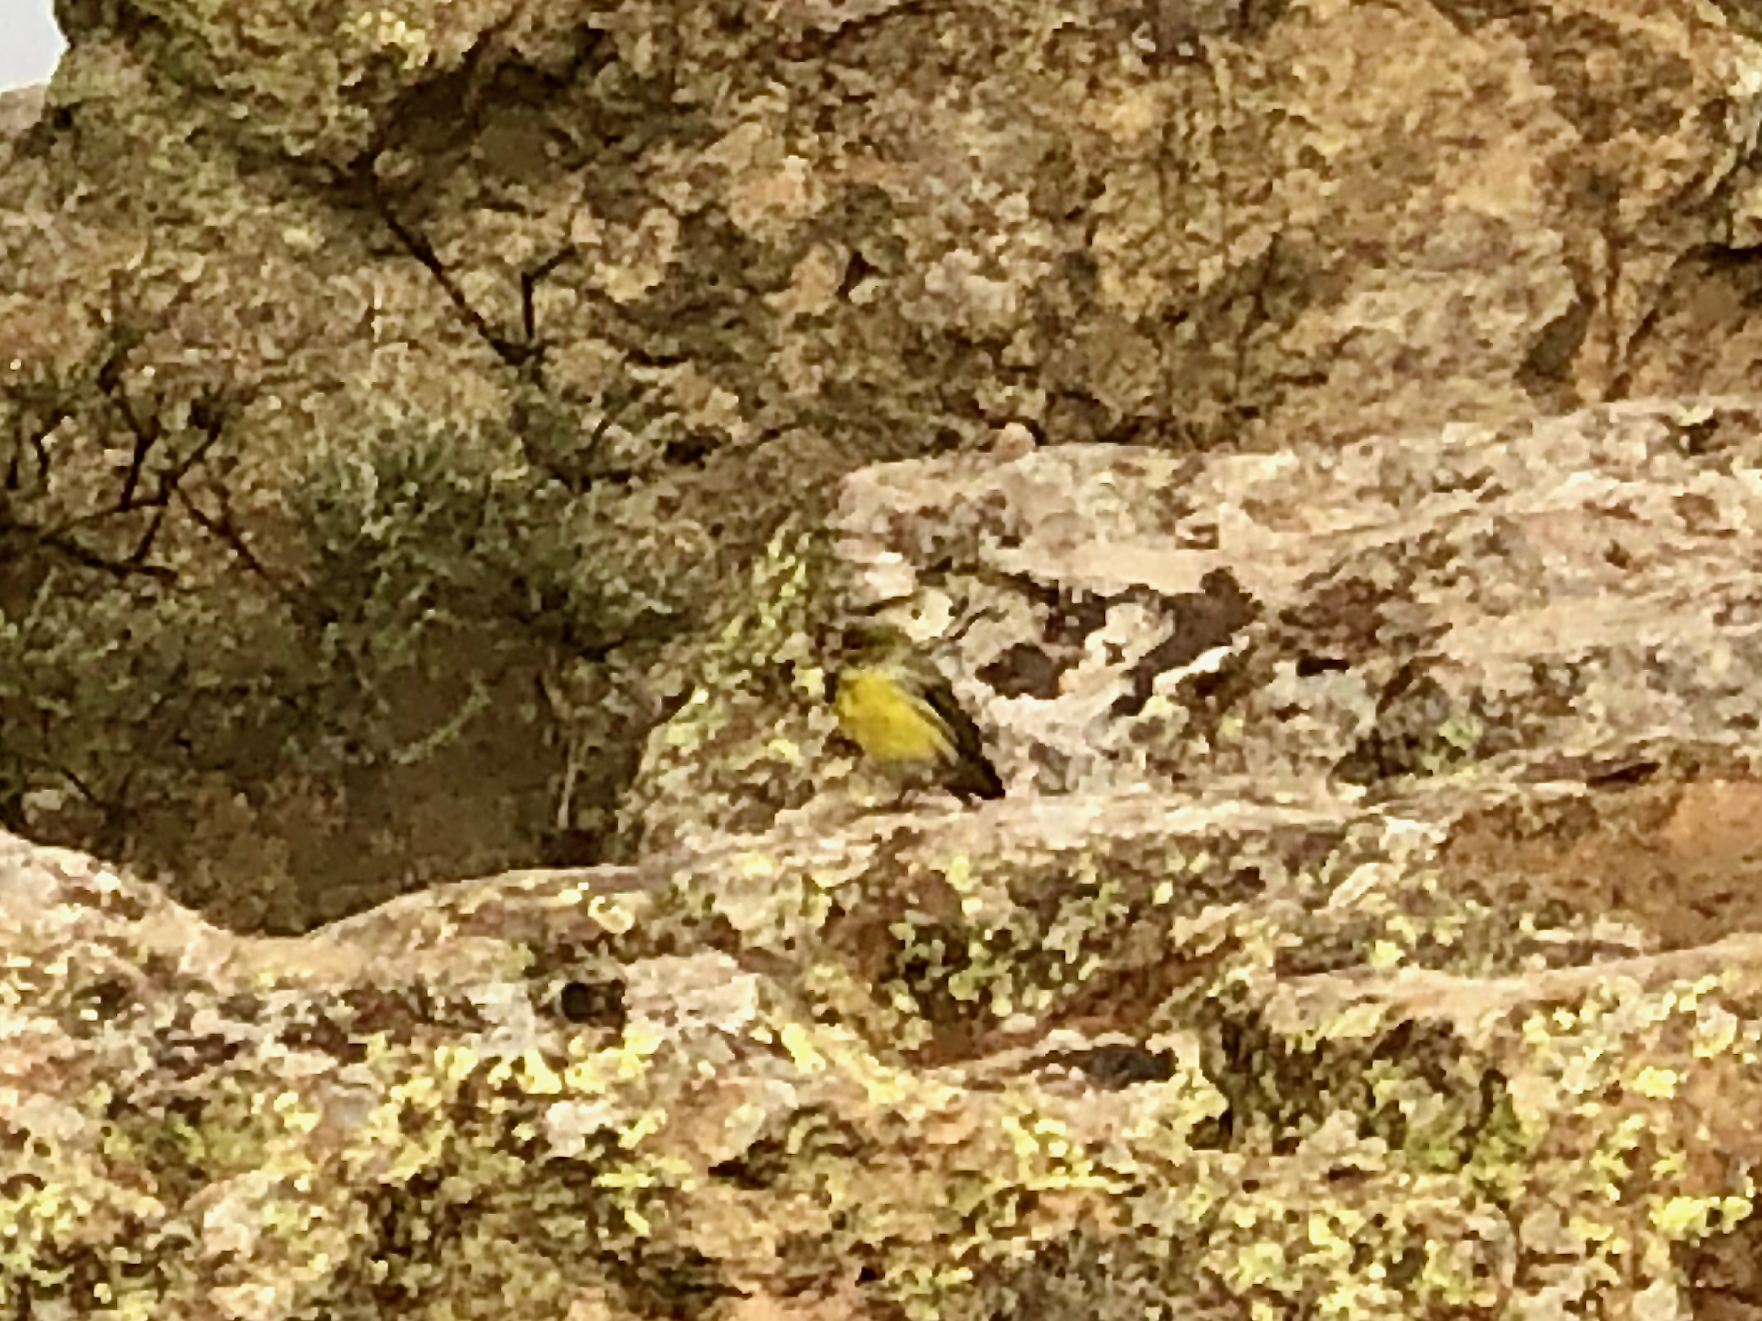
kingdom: Animalia
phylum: Chordata
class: Aves
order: Passeriformes
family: Fringillidae
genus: Serinus
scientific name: Serinus canaria
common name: Atlantic canary
